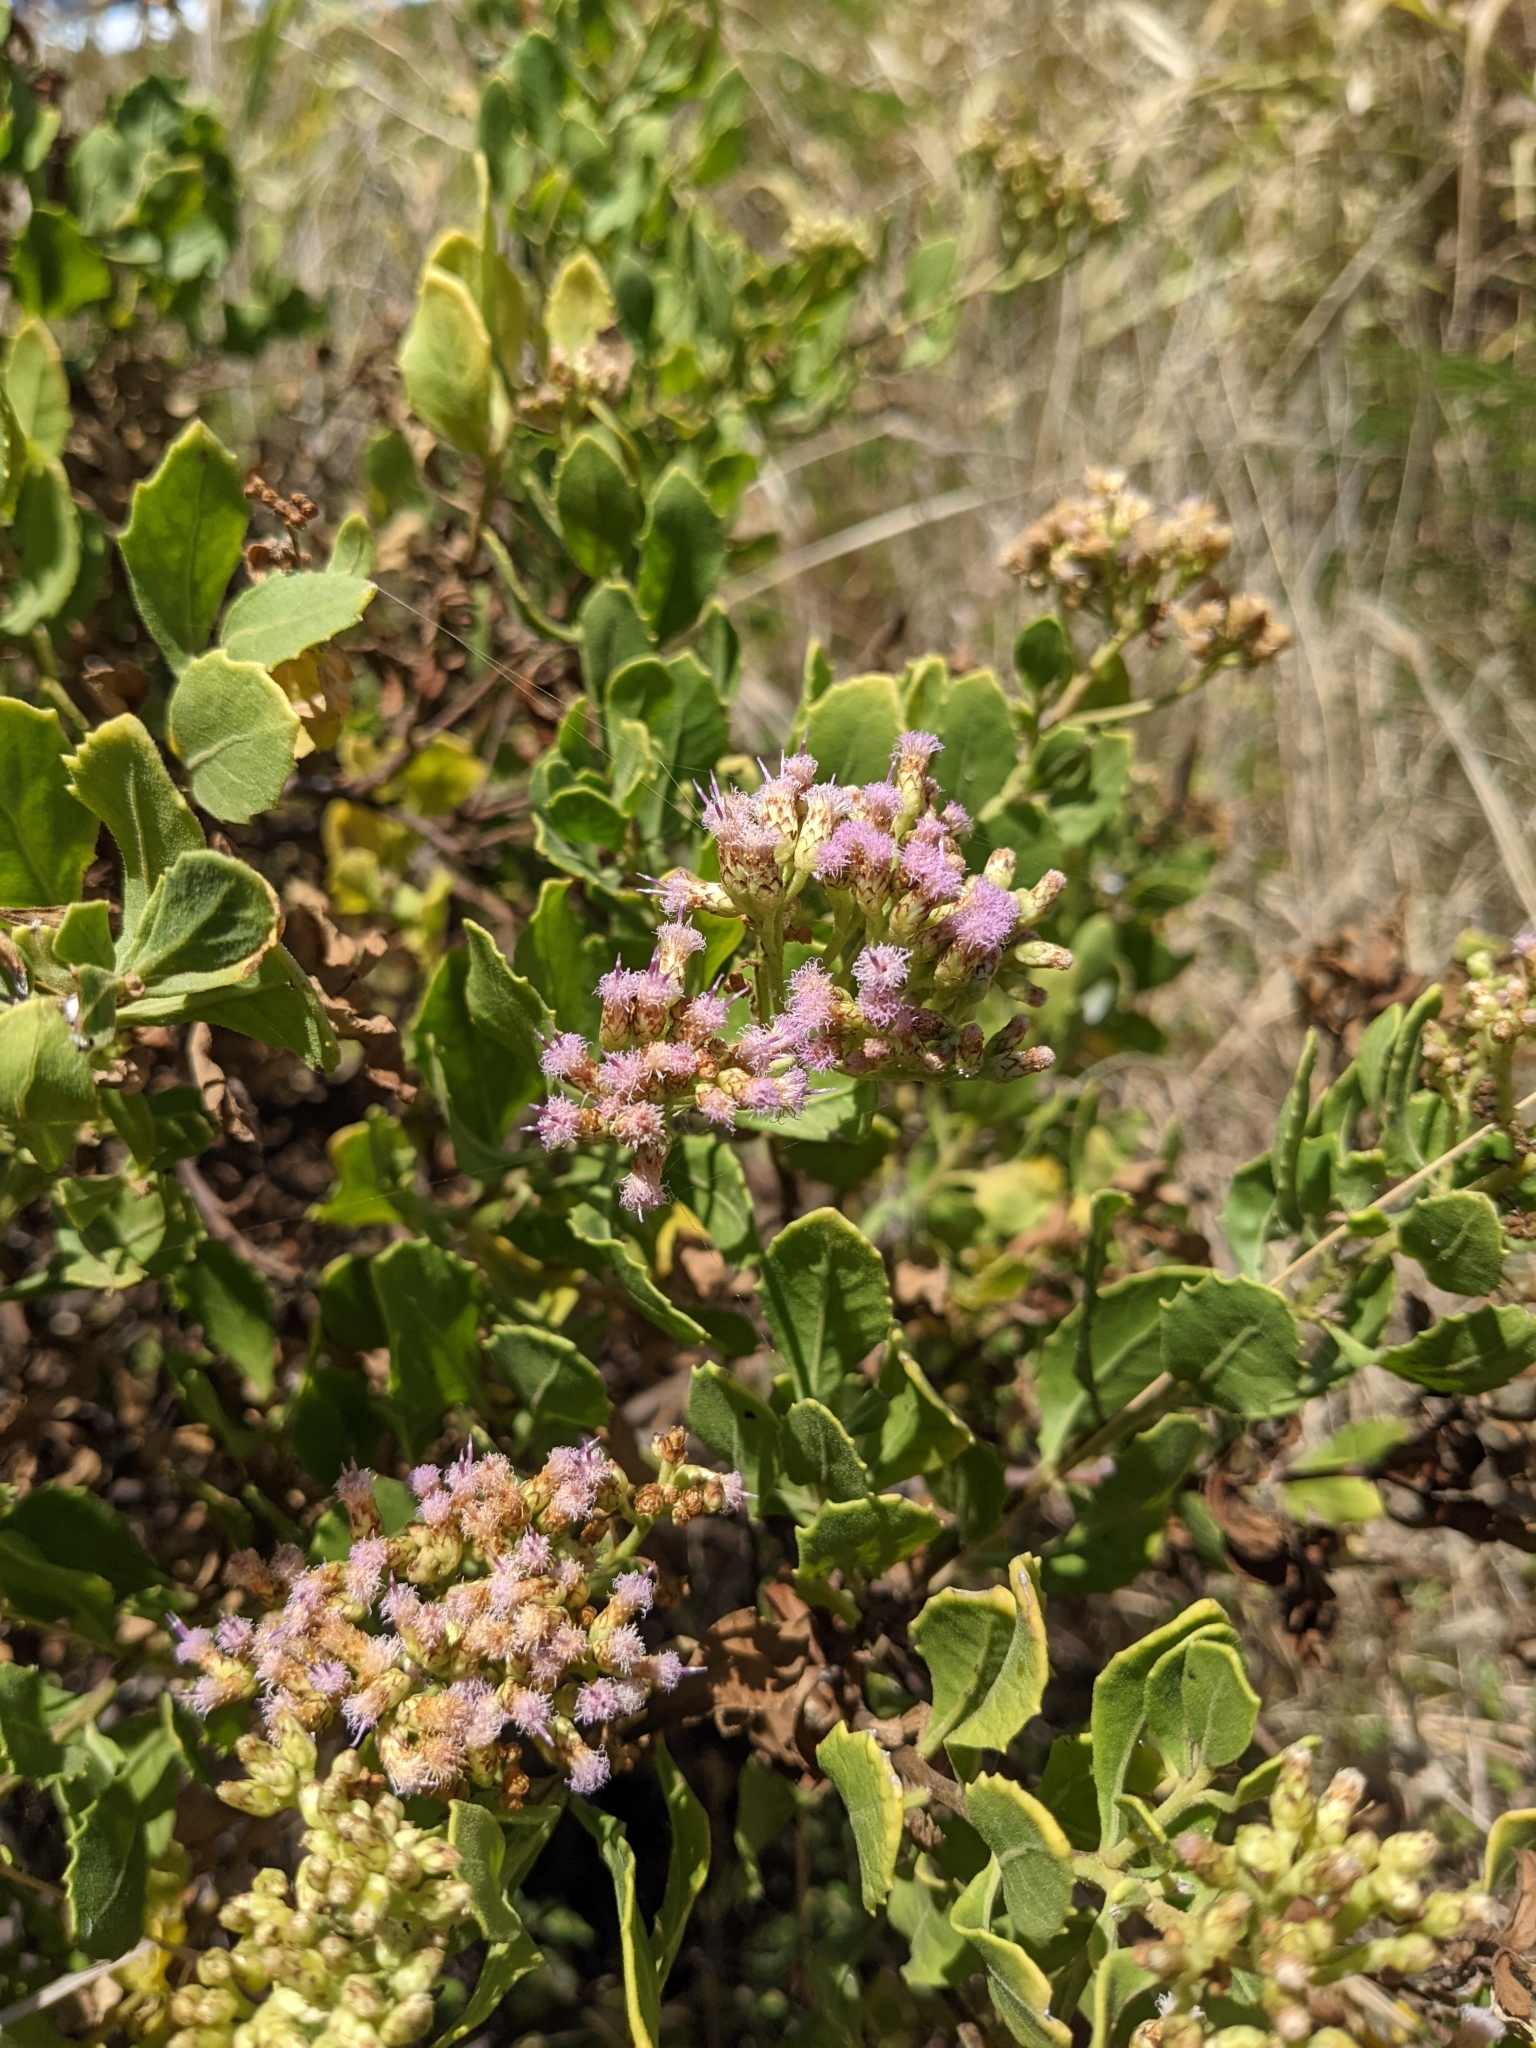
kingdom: Plantae
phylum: Tracheophyta
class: Magnoliopsida
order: Asterales
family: Asteraceae
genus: Pluchea
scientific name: Pluchea indica
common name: Indian fleabane
